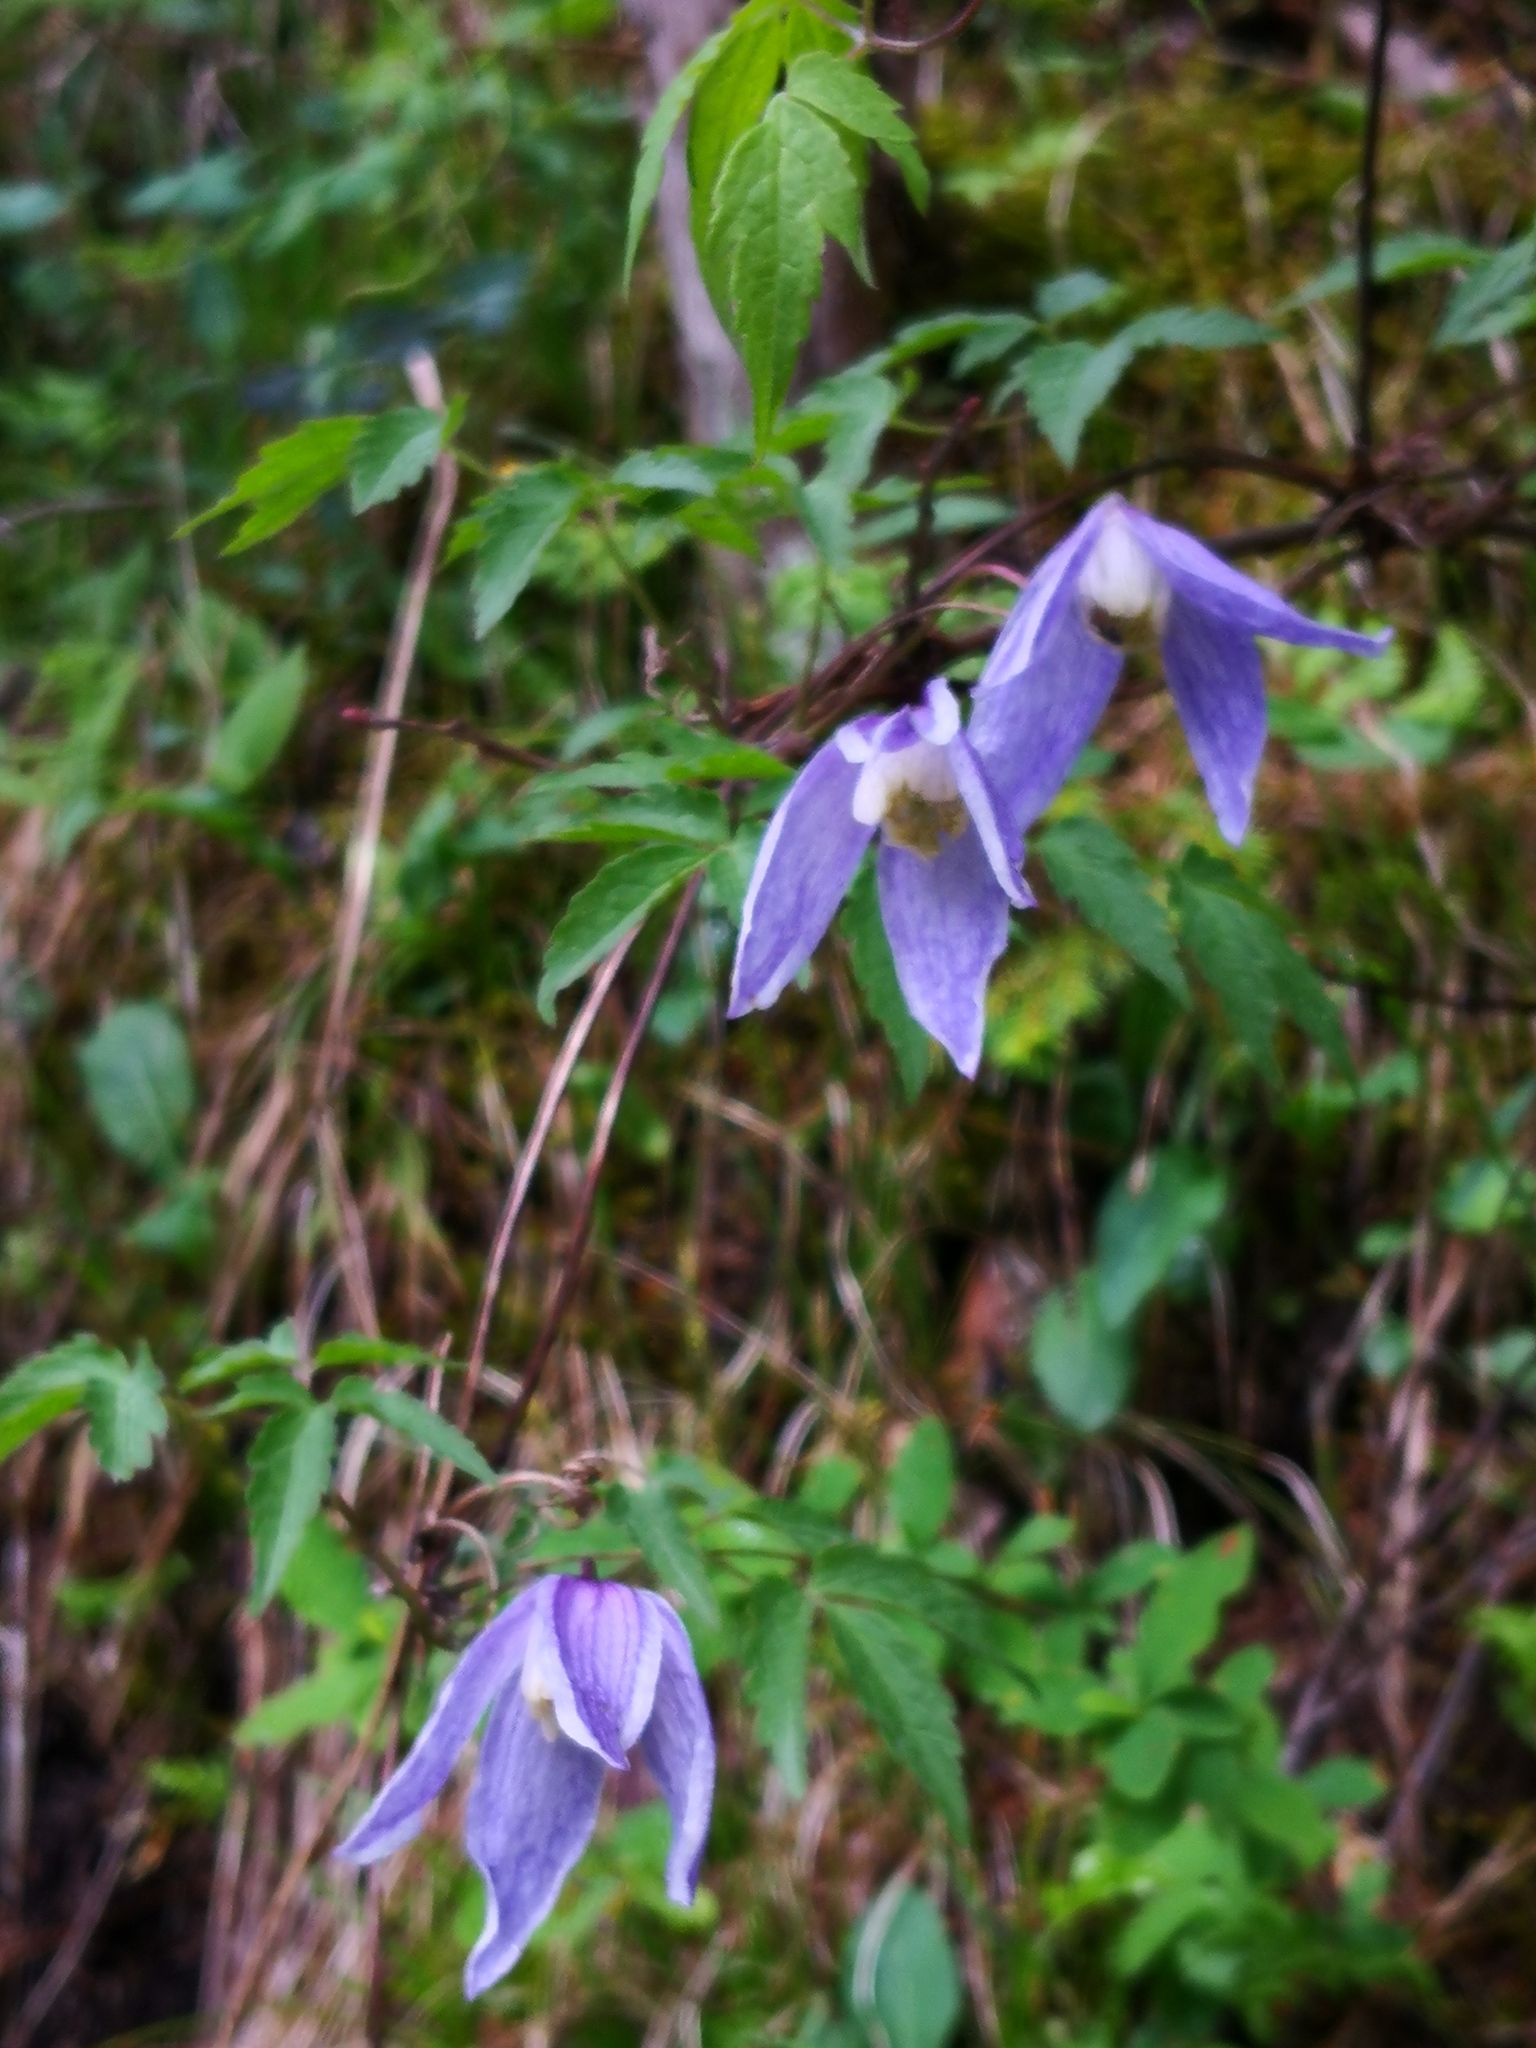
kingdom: Plantae
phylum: Tracheophyta
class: Magnoliopsida
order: Ranunculales
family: Ranunculaceae
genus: Clematis
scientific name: Clematis alpina
